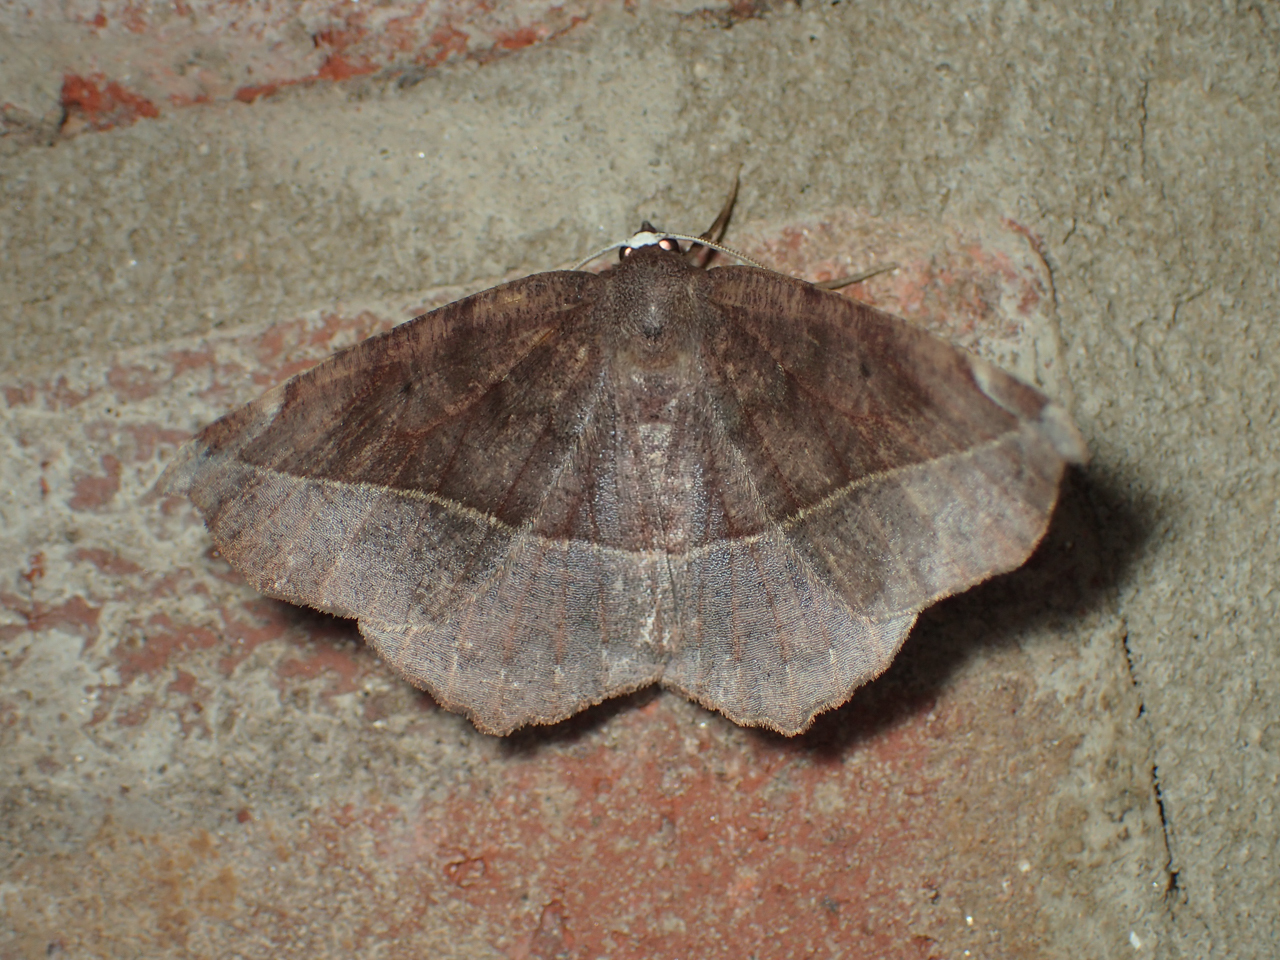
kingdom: Animalia
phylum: Arthropoda
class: Insecta
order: Lepidoptera
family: Geometridae
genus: Eutrapela
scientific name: Eutrapela clemataria
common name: Curved-toothed geometer
